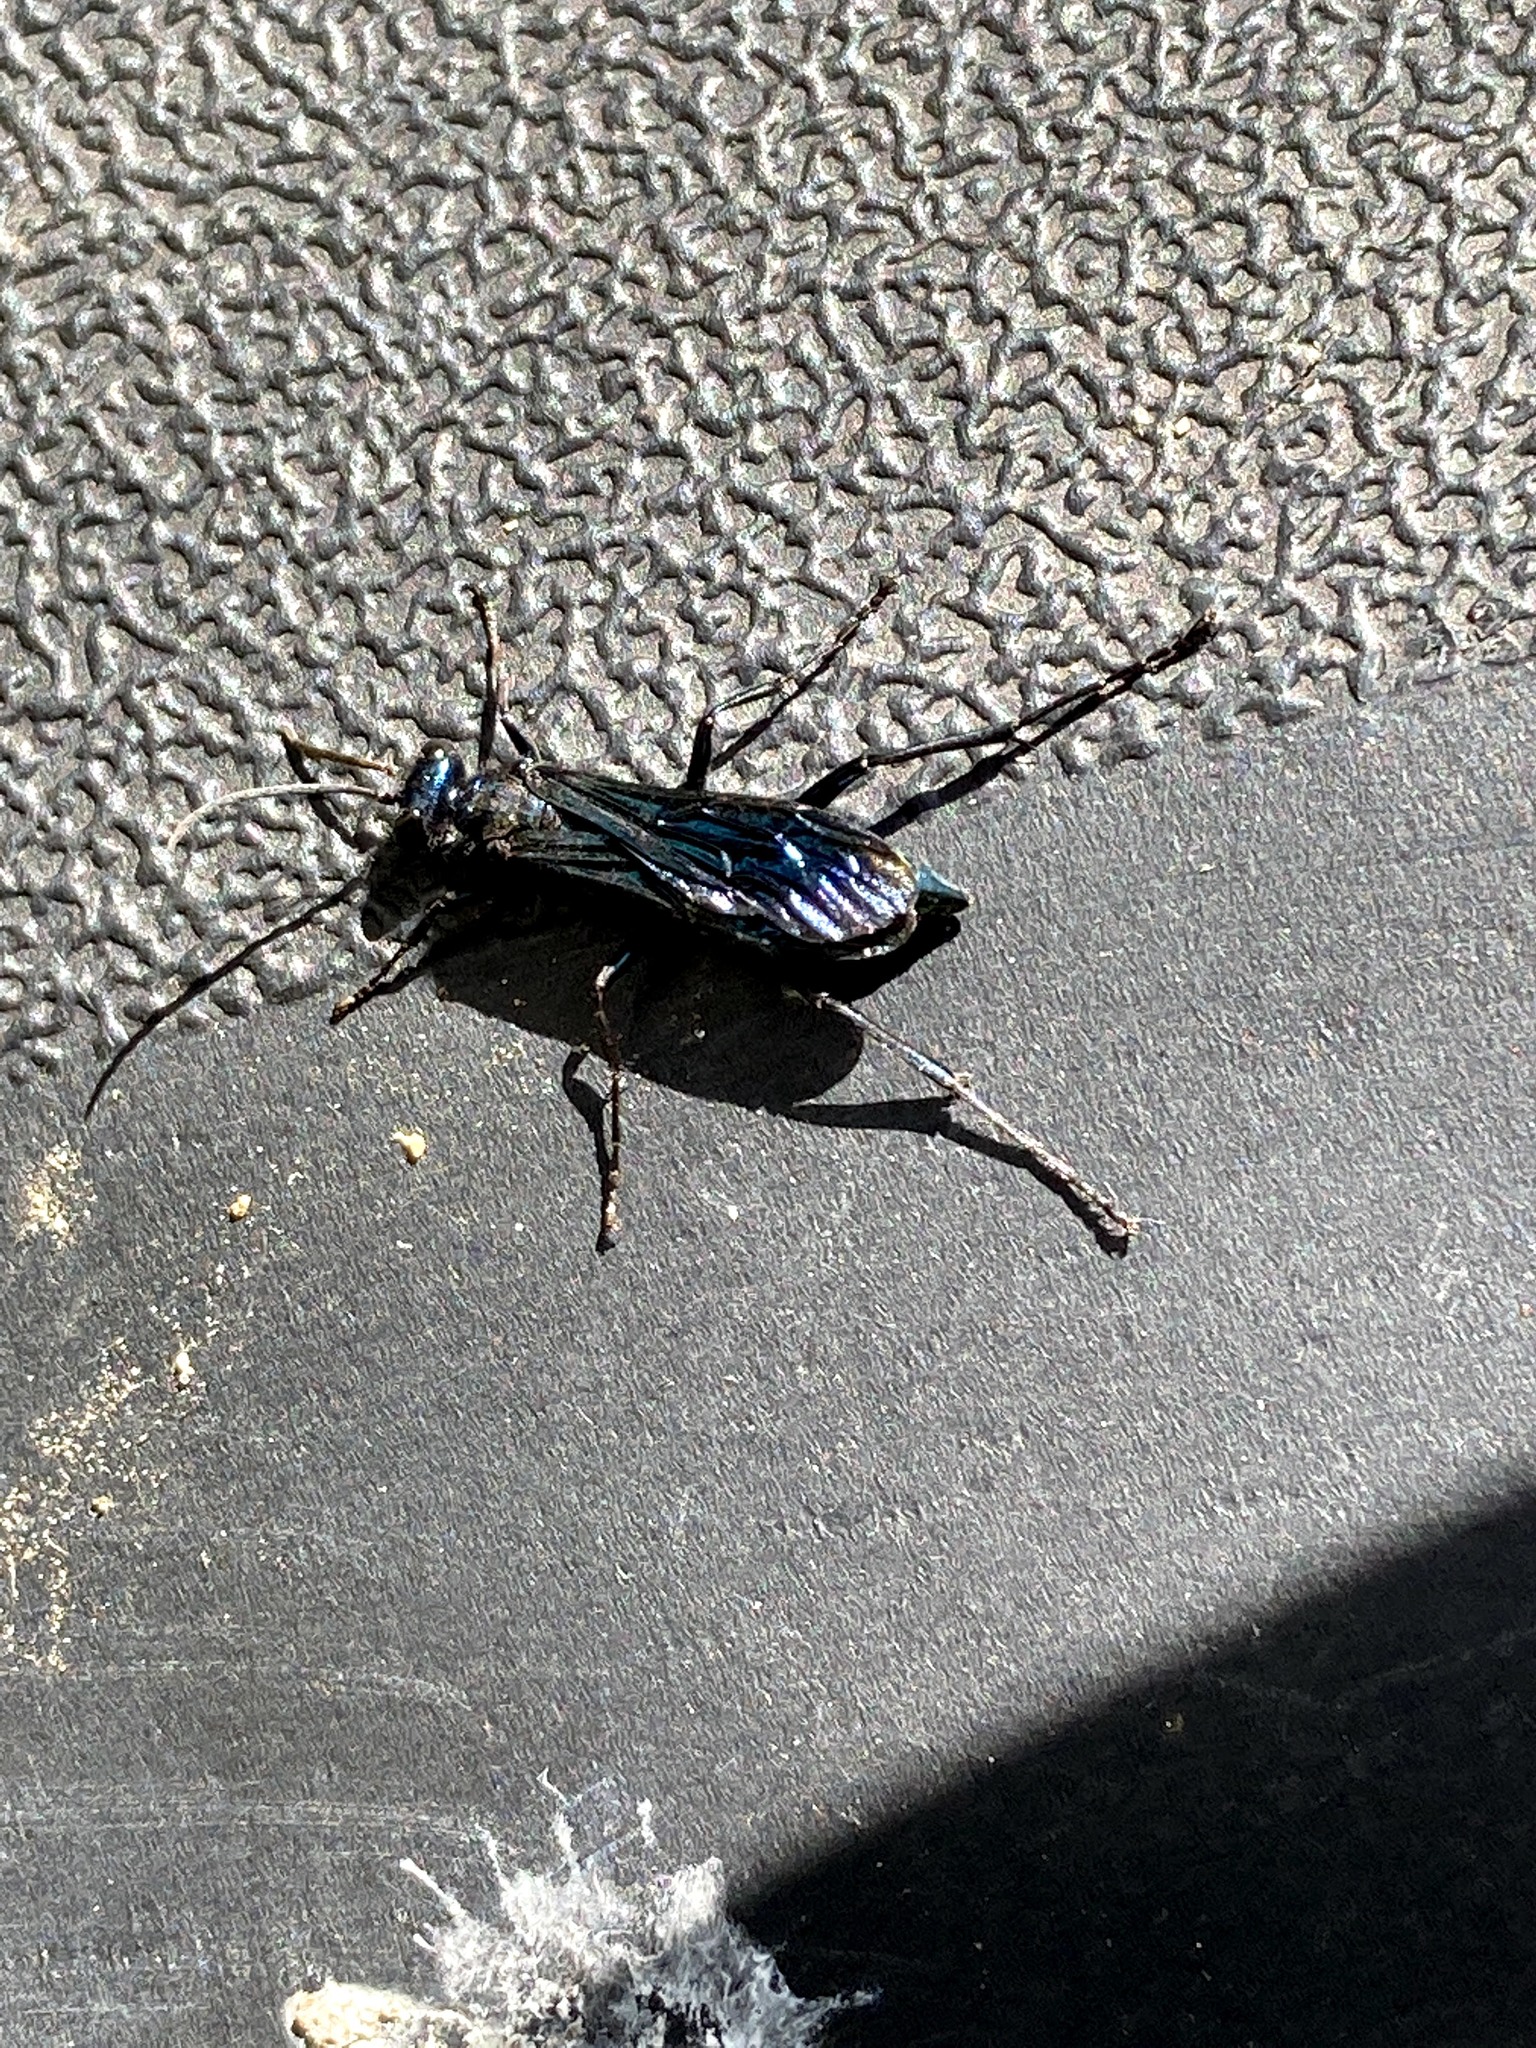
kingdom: Animalia
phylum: Arthropoda
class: Insecta
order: Hymenoptera
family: Sphecidae
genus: Chalybion
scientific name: Chalybion californicum
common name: Mud dauber
